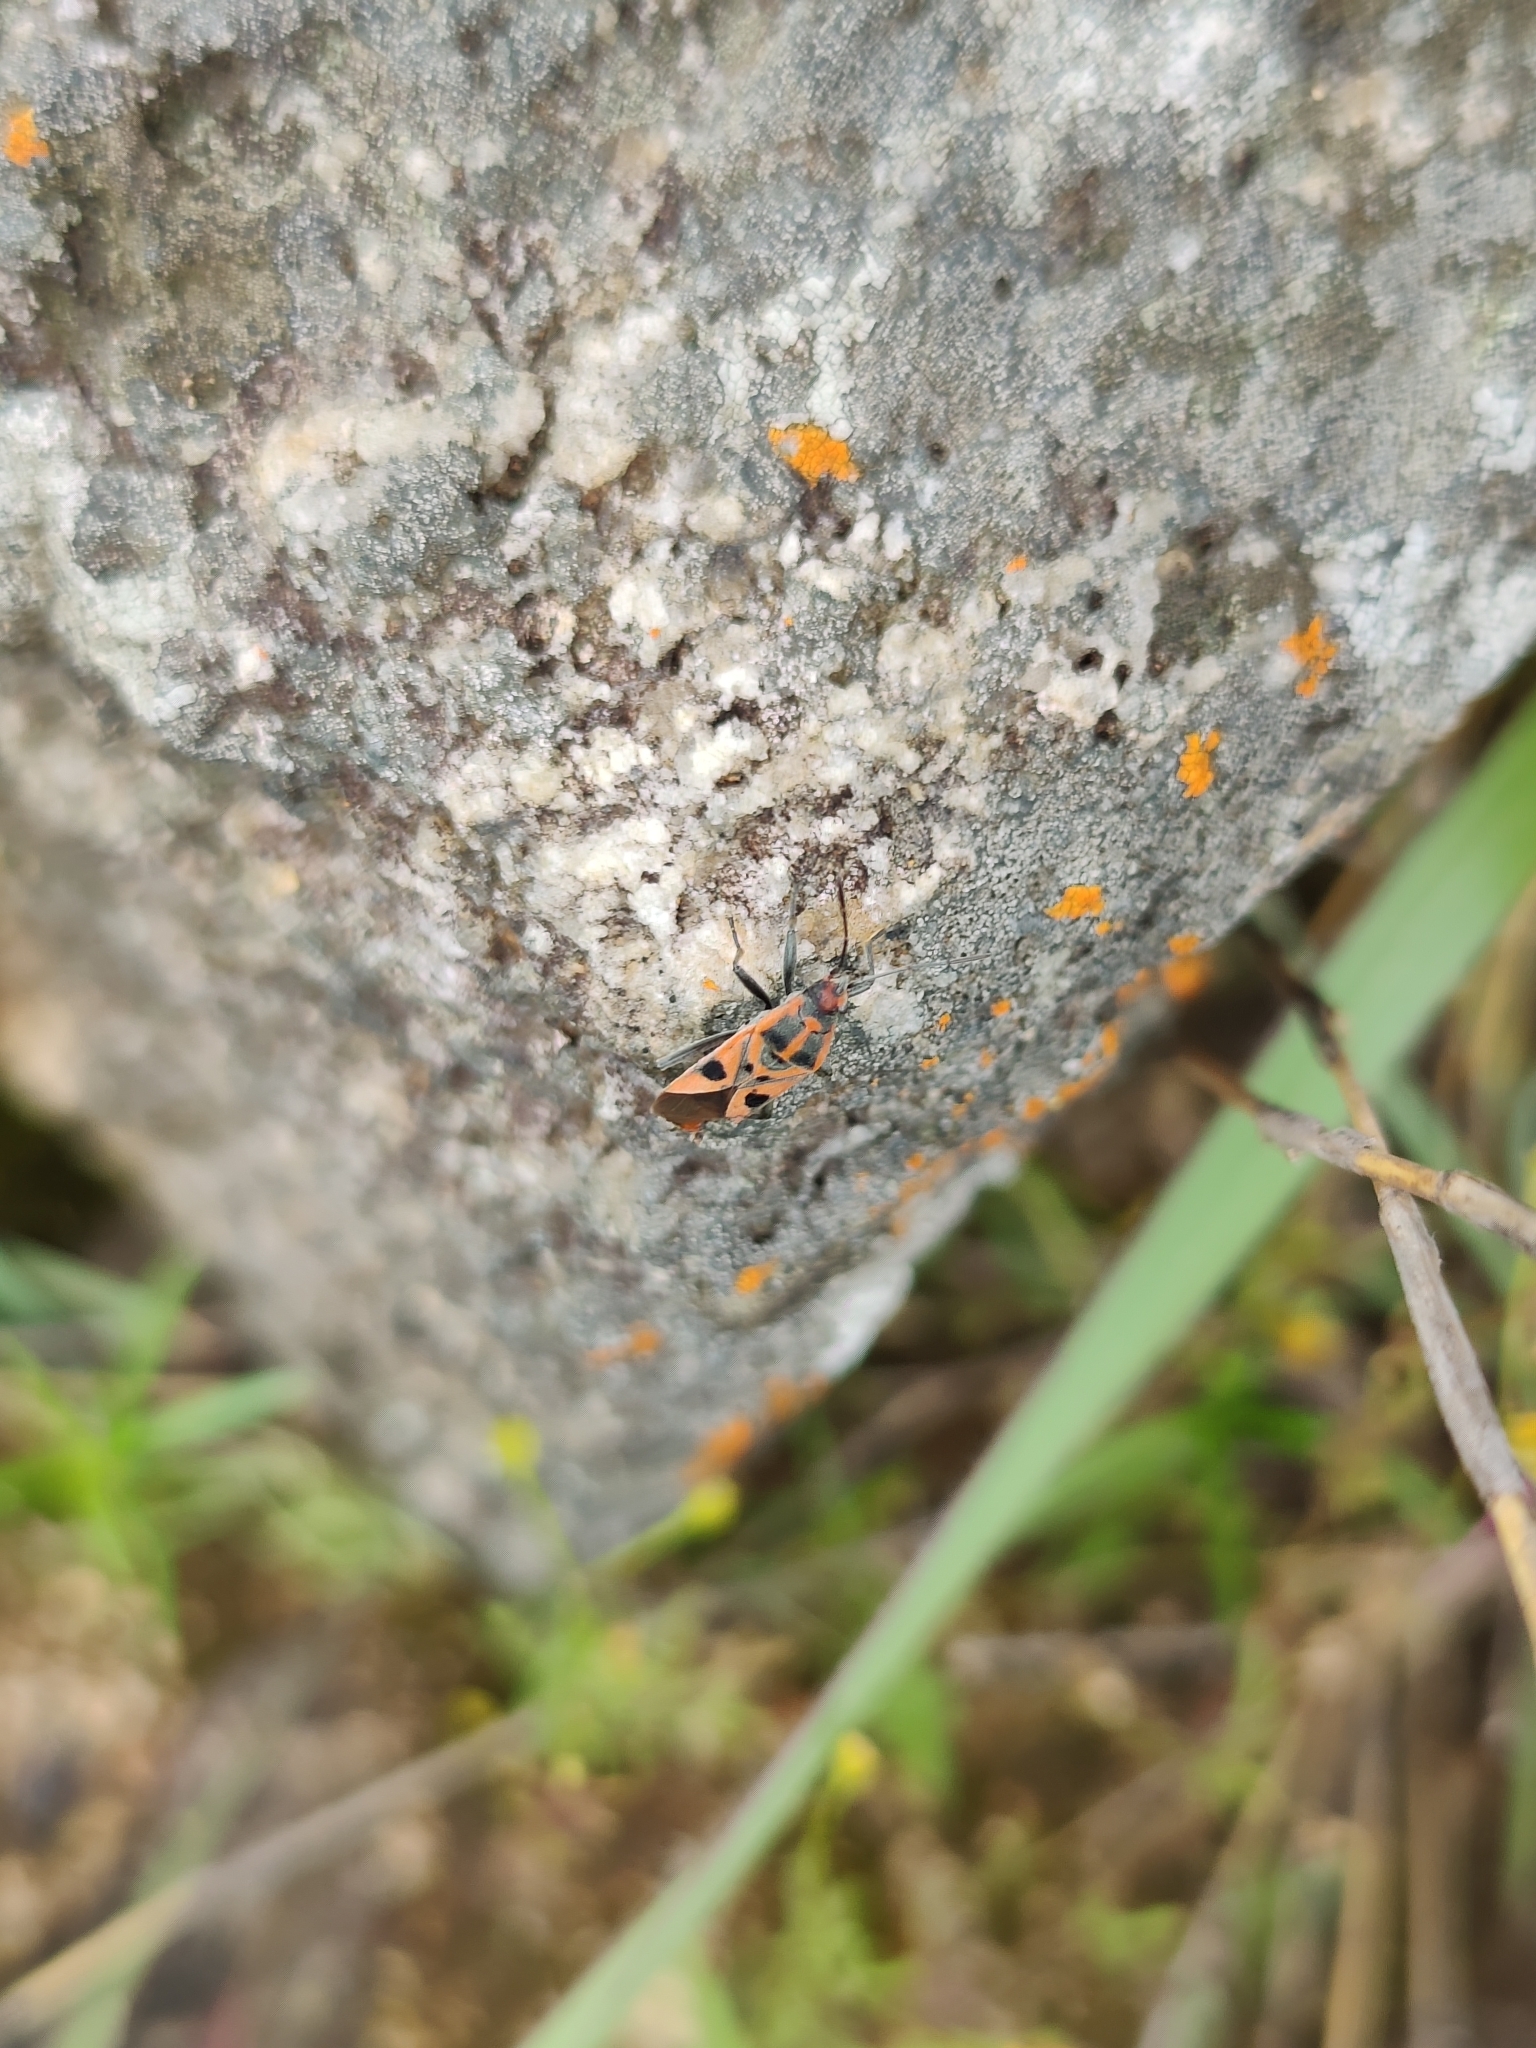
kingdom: Animalia
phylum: Arthropoda
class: Insecta
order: Hemiptera
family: Lygaeidae
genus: Spilostethus
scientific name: Spilostethus hospes
